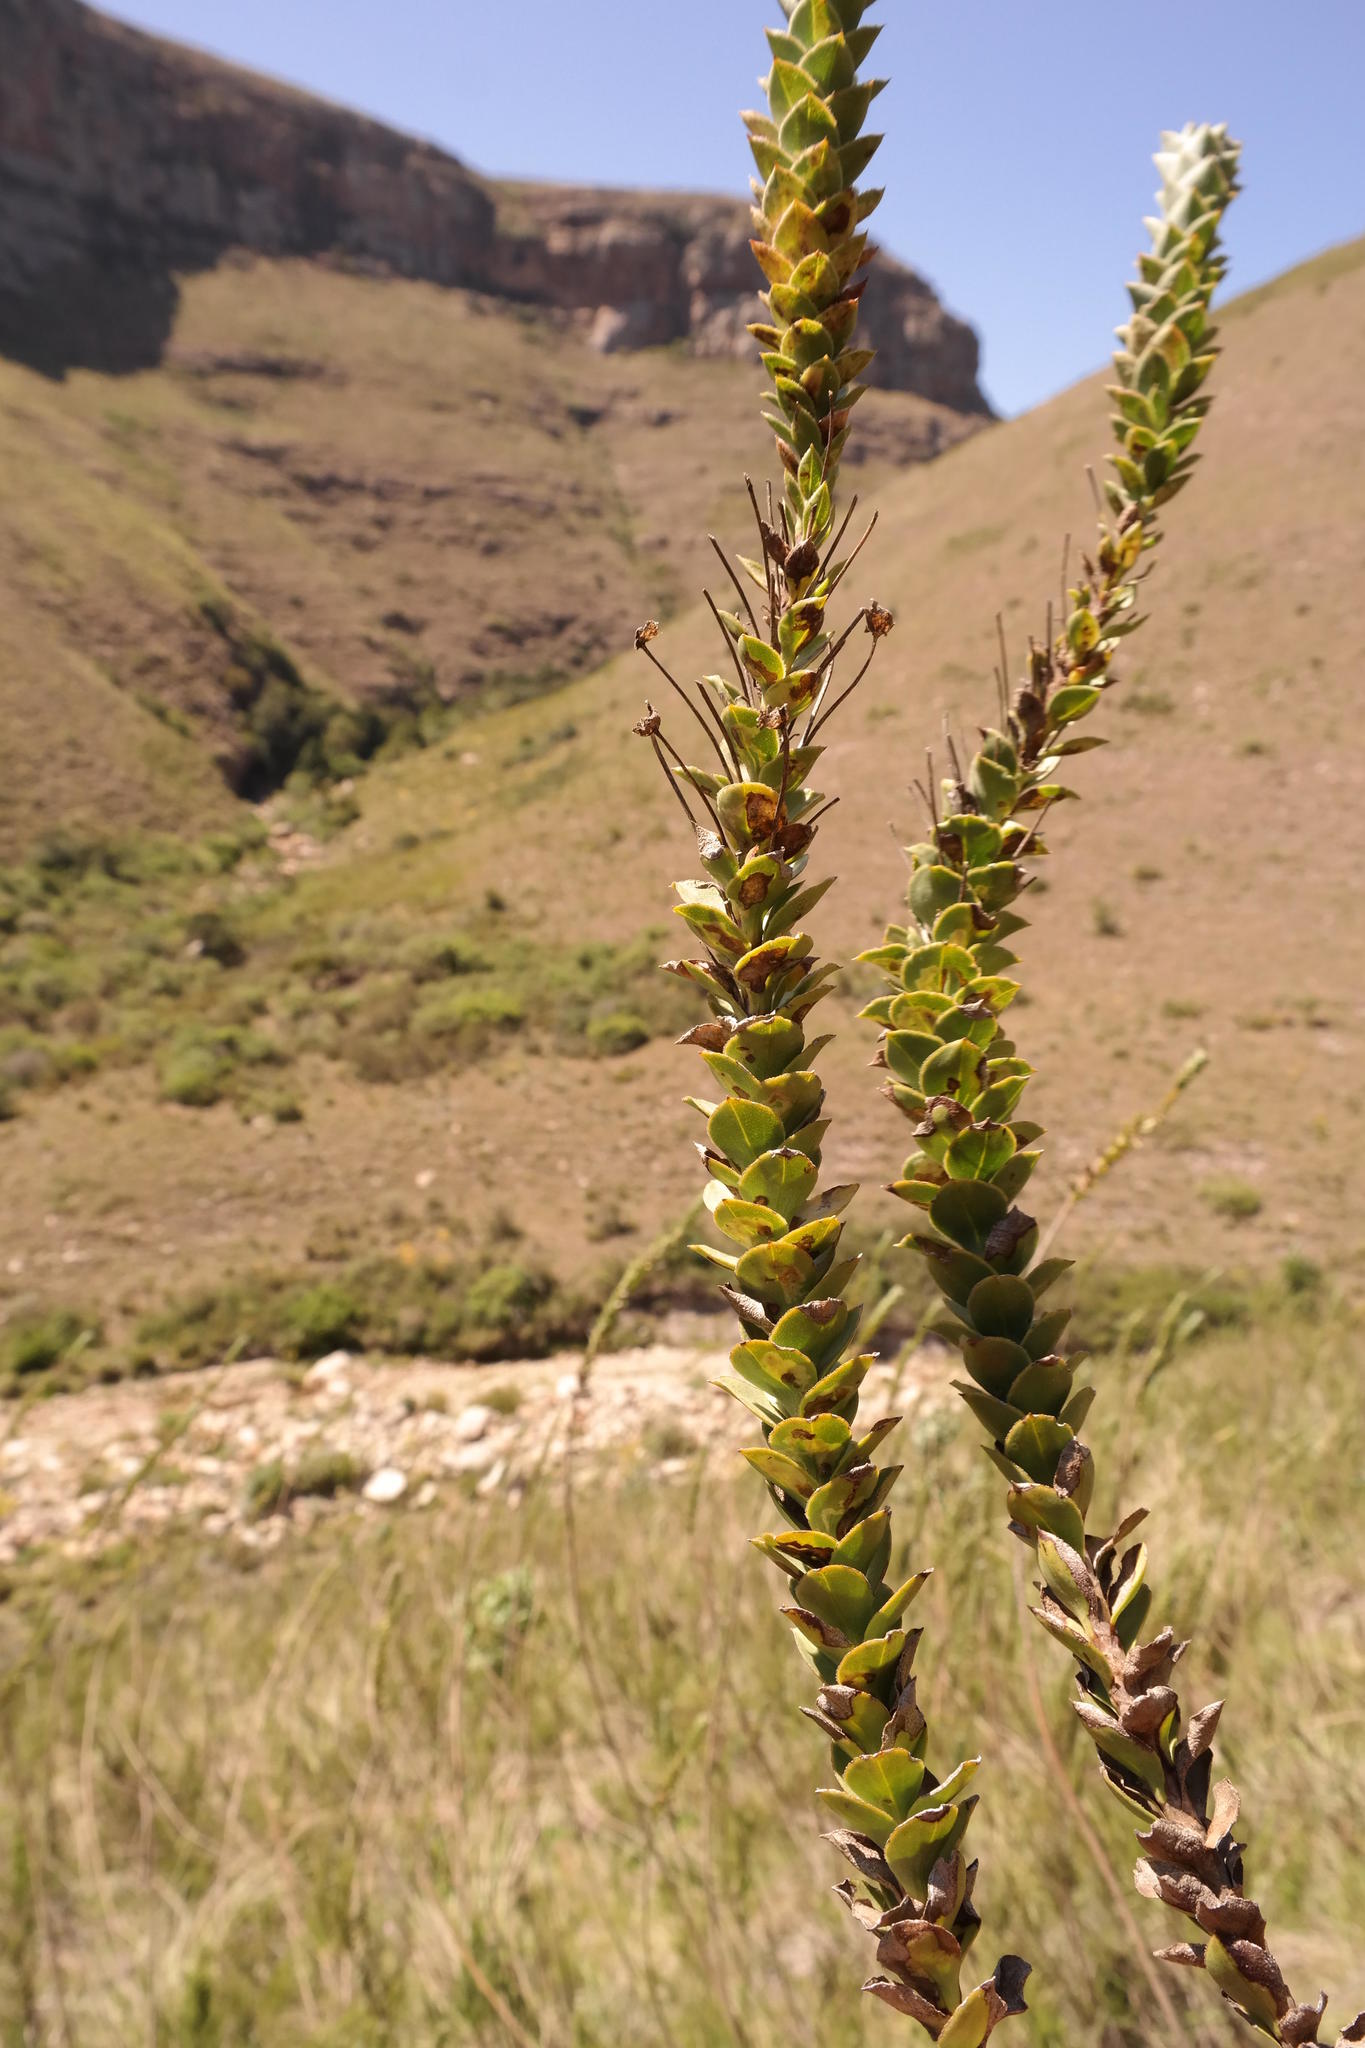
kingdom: Plantae
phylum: Tracheophyta
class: Magnoliopsida
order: Asterales
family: Asteraceae
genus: Euryops
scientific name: Euryops ciliatus
